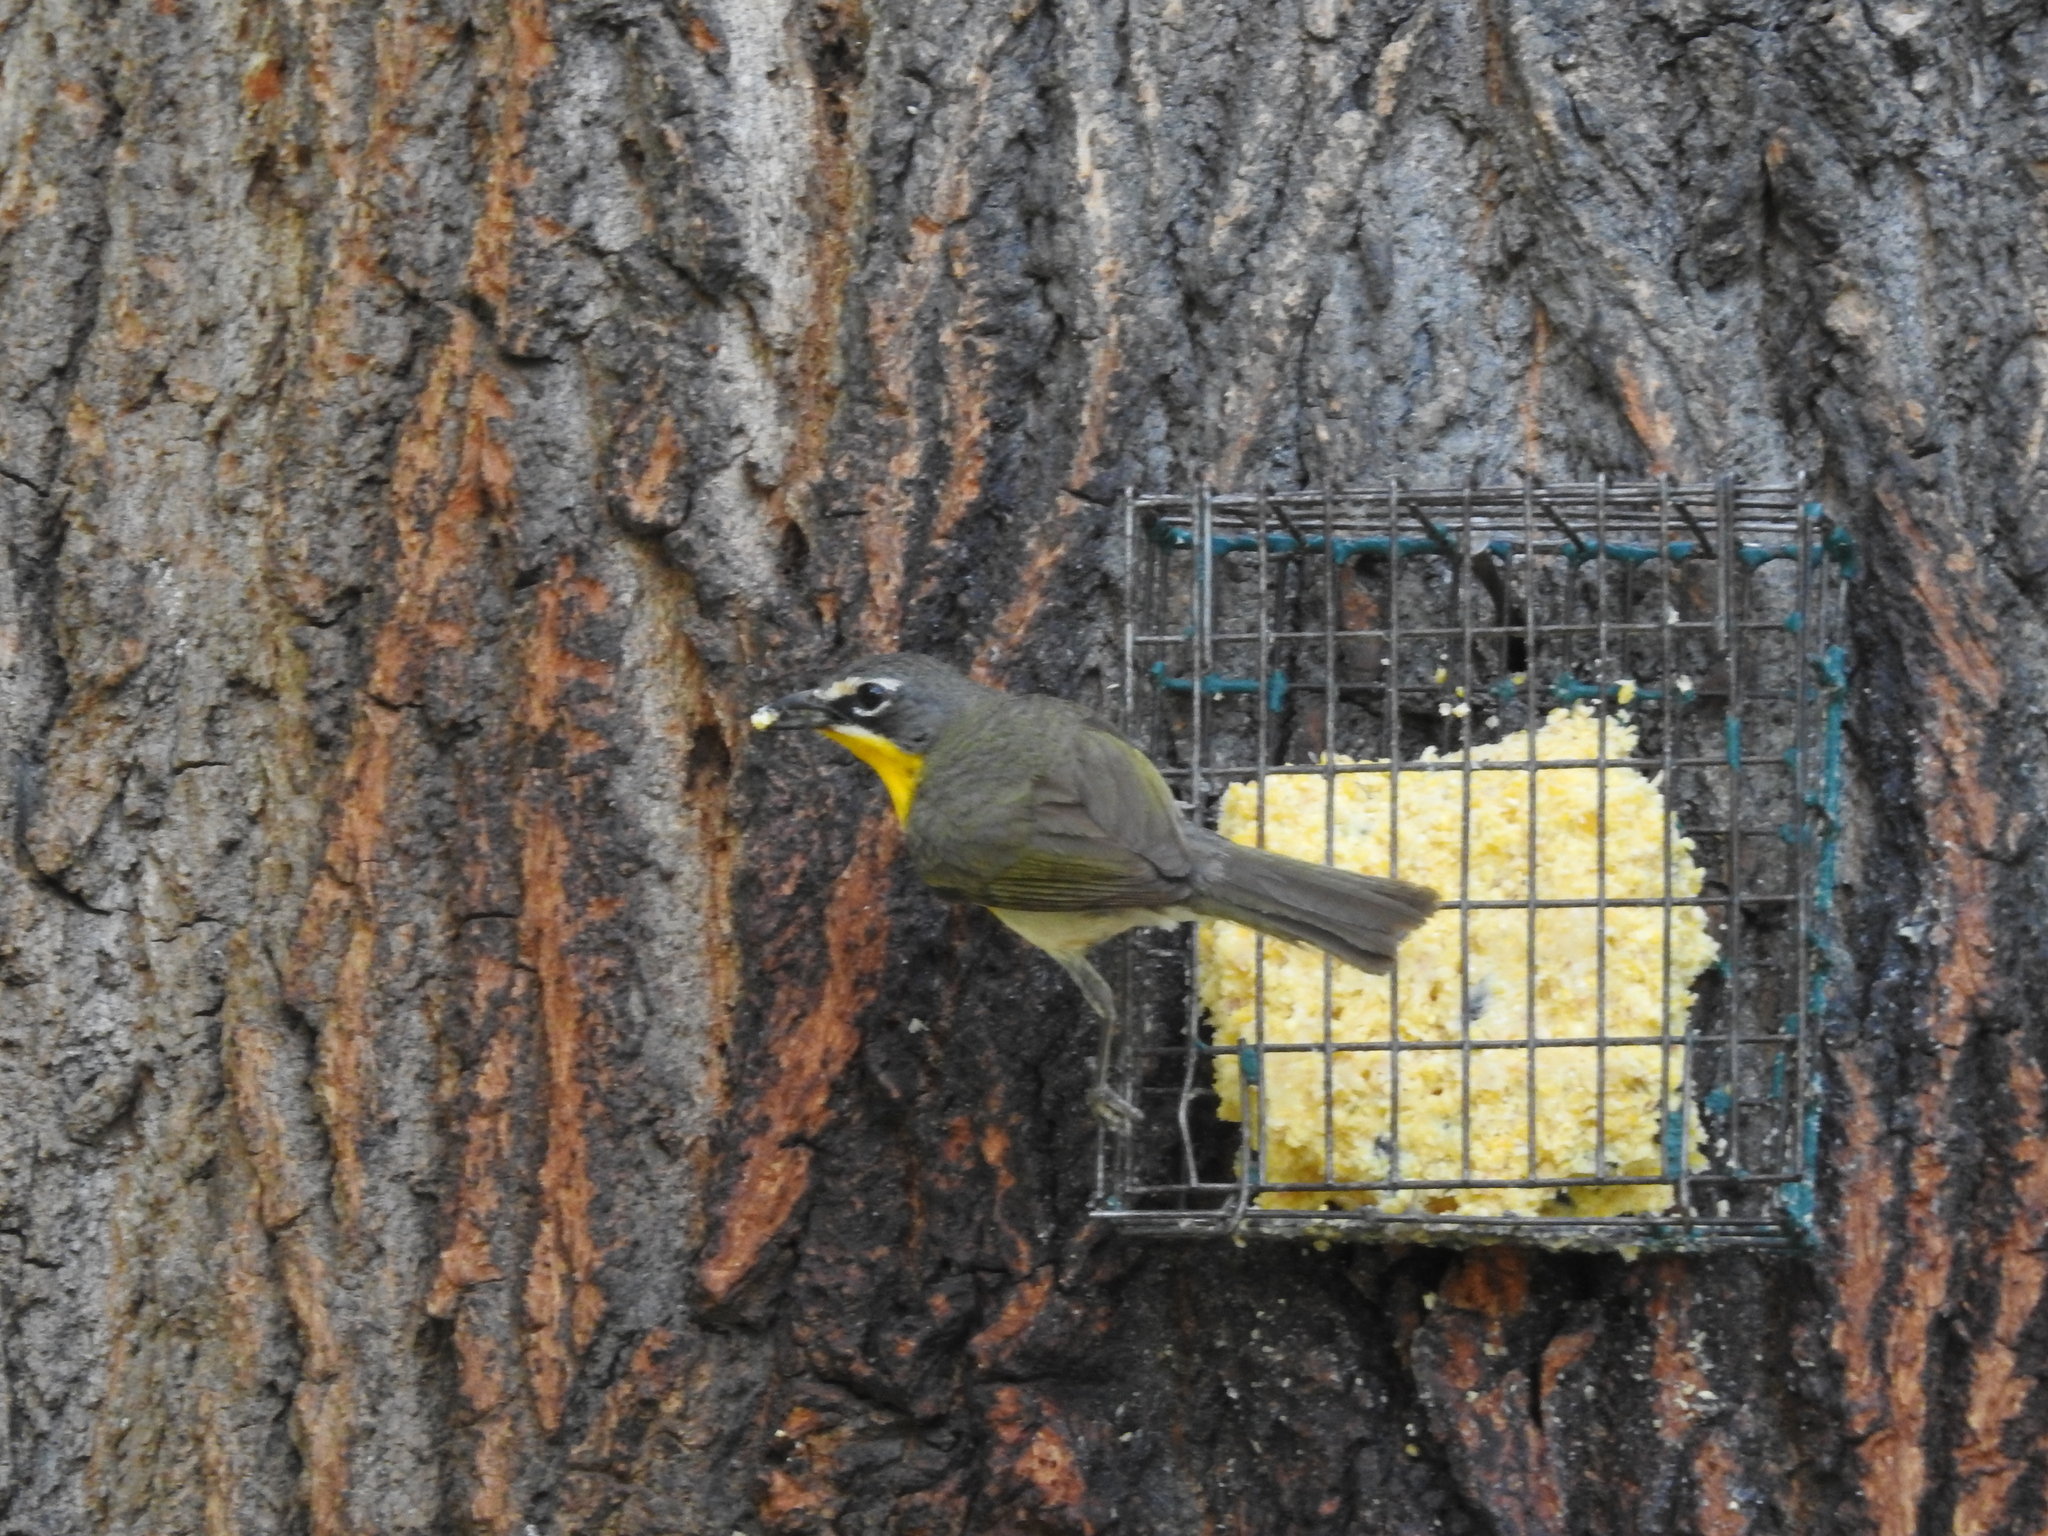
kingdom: Animalia
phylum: Chordata
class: Aves
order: Passeriformes
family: Parulidae
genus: Icteria
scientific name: Icteria virens
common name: Yellow-breasted chat
